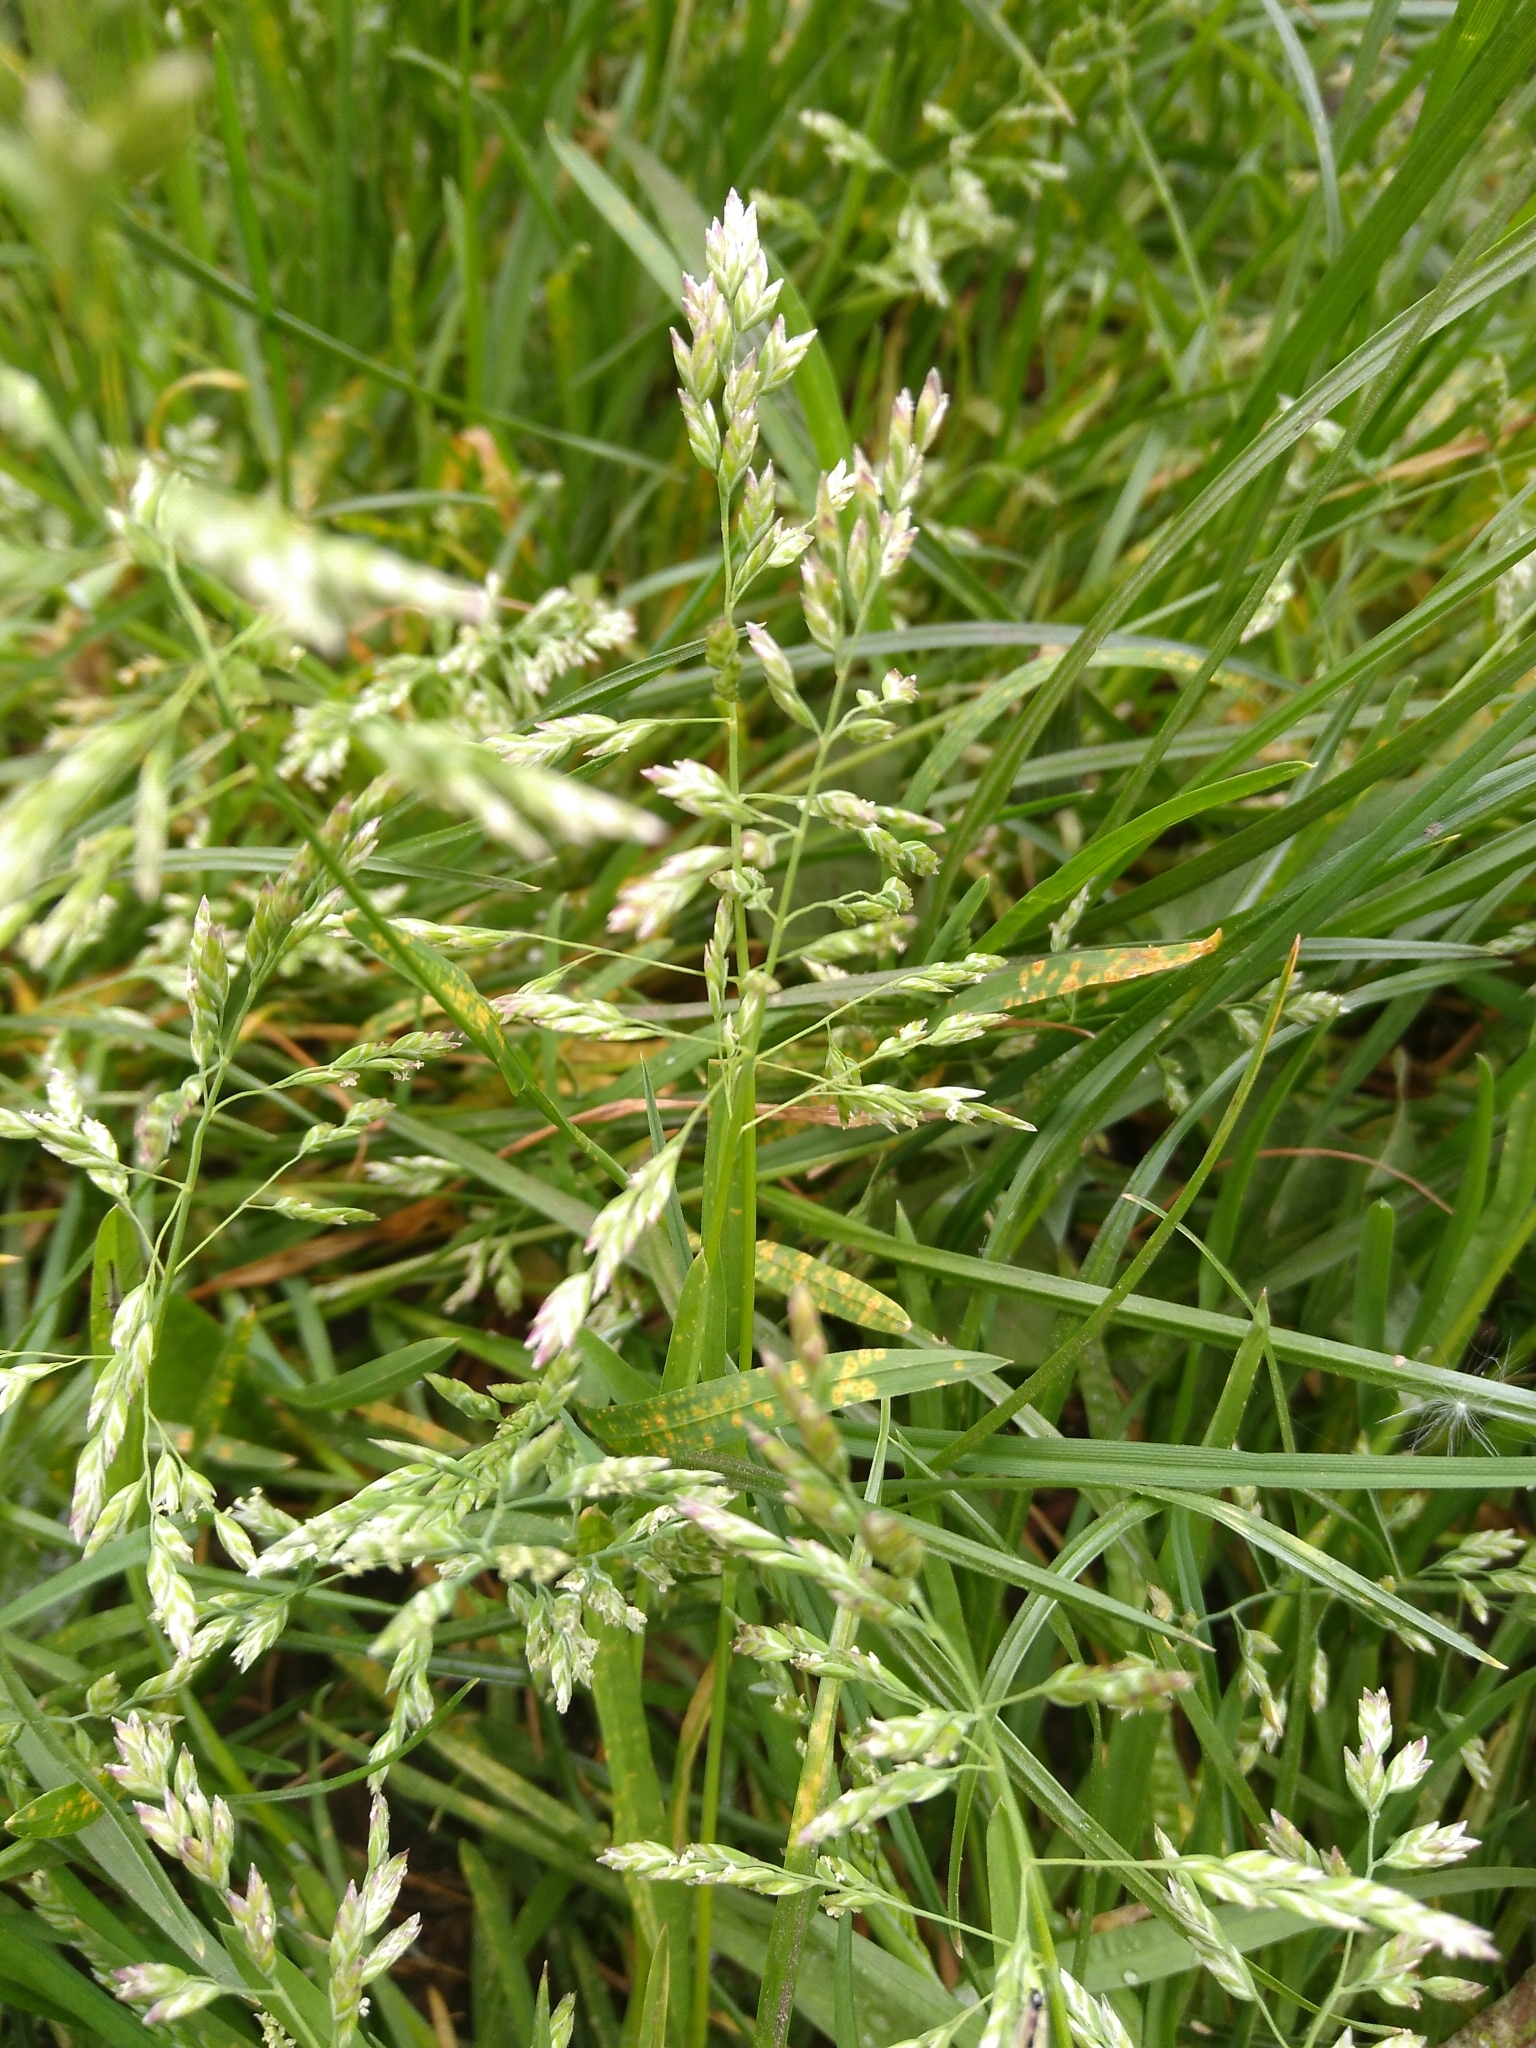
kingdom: Plantae
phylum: Tracheophyta
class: Liliopsida
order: Poales
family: Poaceae
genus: Poa
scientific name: Poa annua
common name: Annual bluegrass
